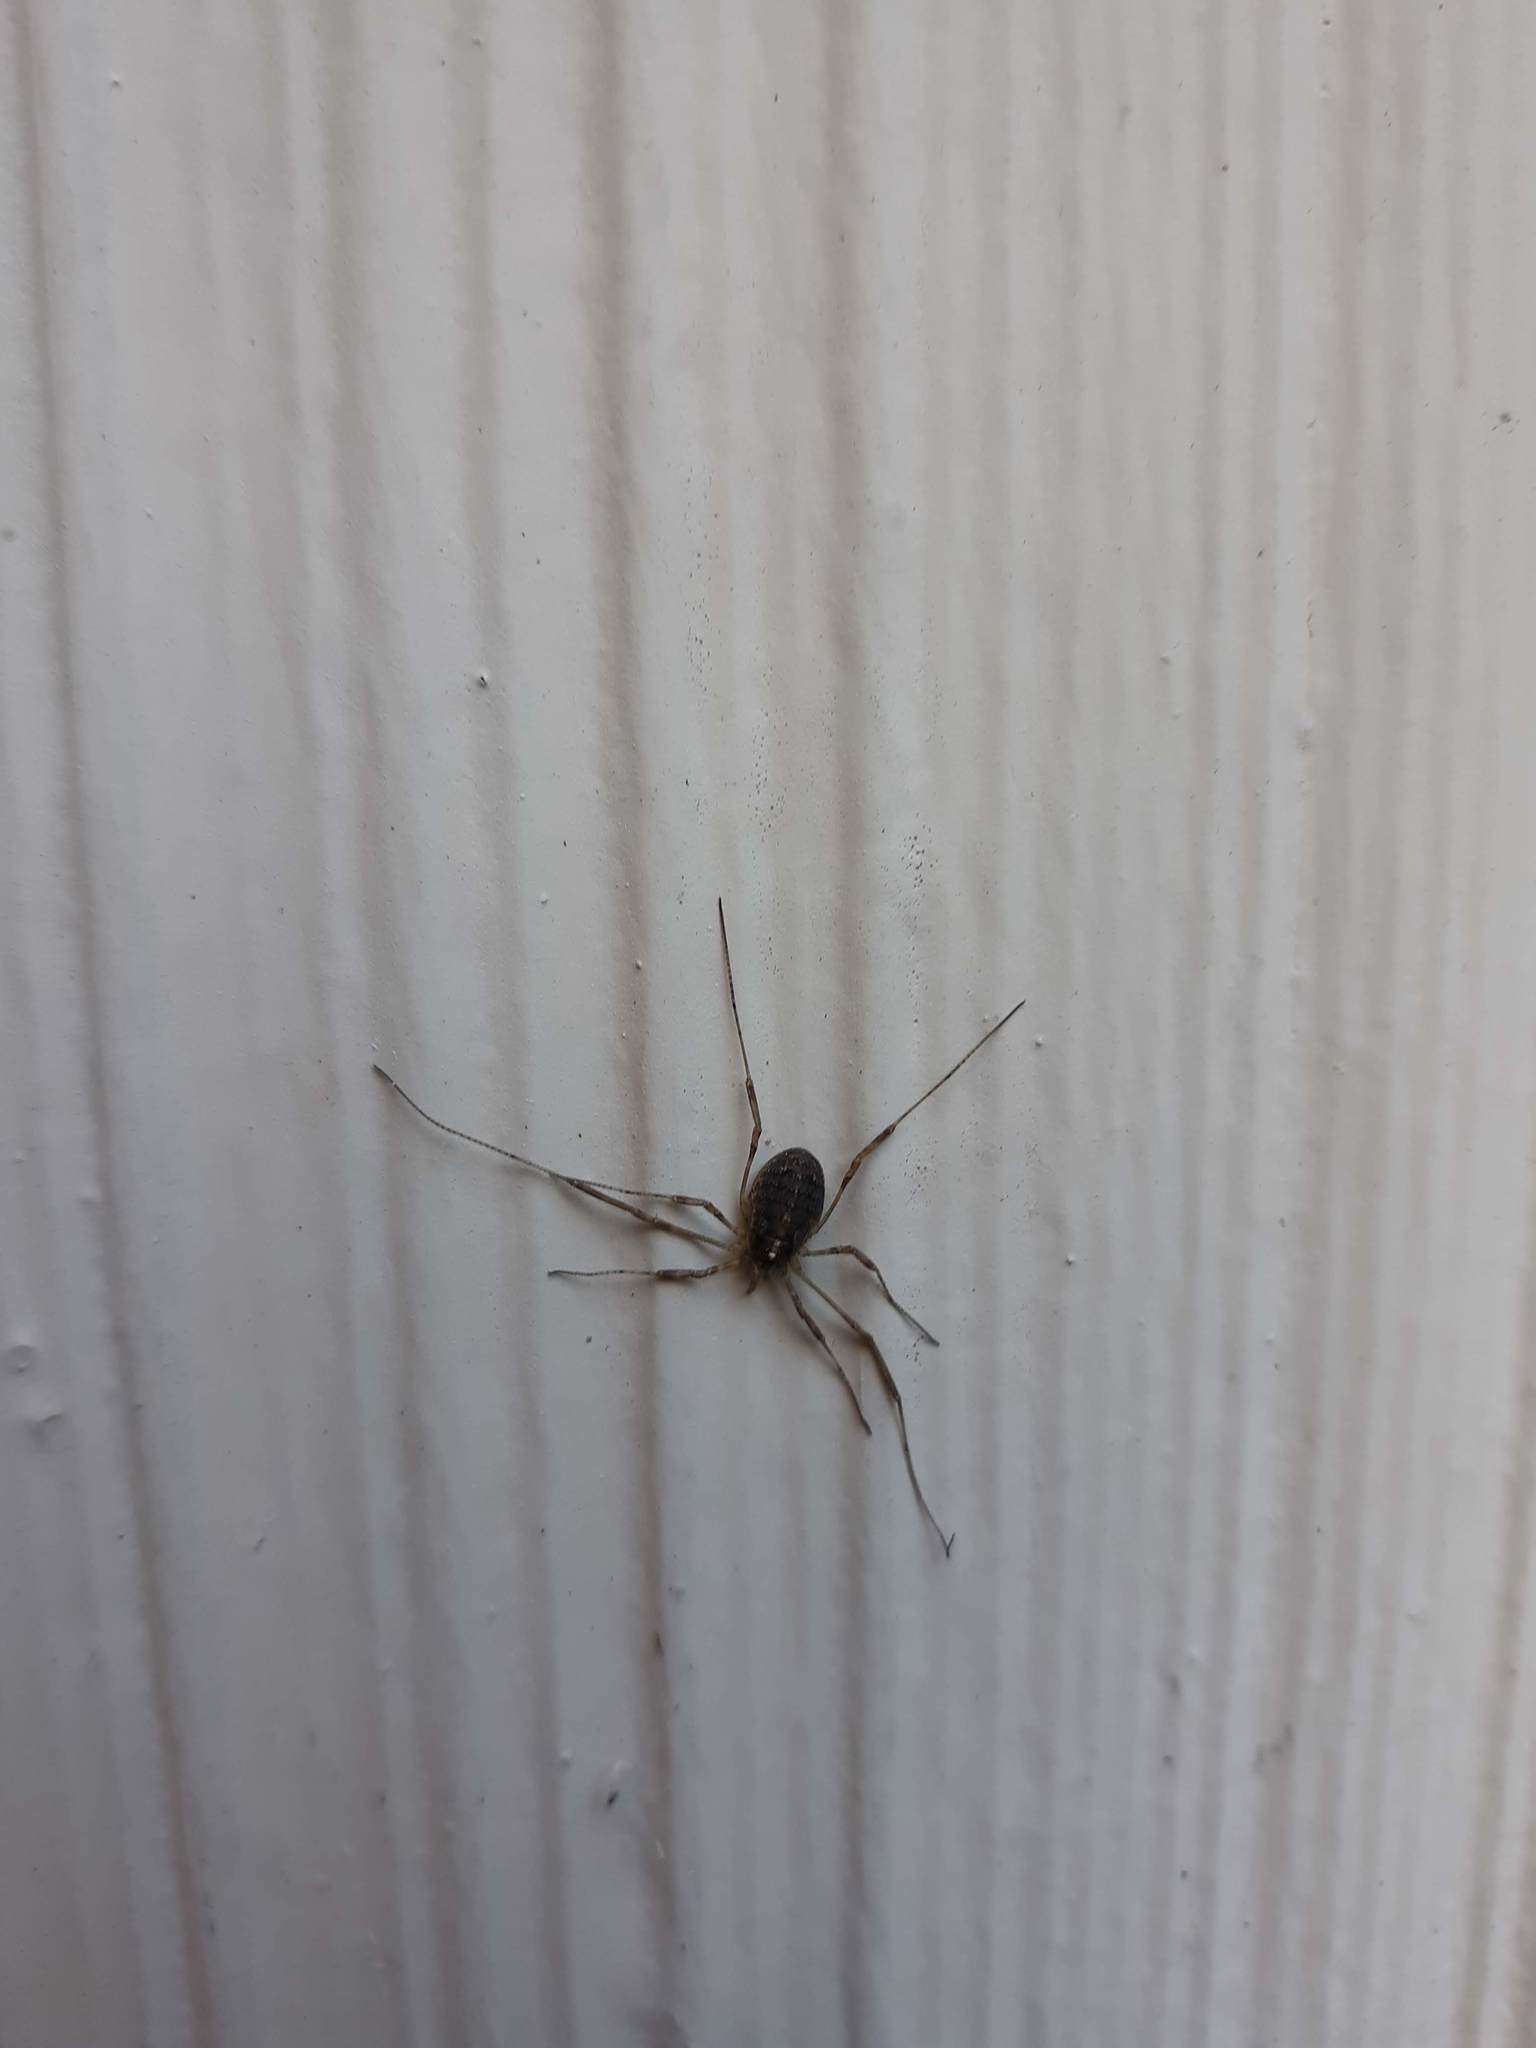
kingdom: Animalia
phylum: Arthropoda
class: Arachnida
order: Opiliones
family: Phalangiidae
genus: Paroligolophus
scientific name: Paroligolophus agrestis
